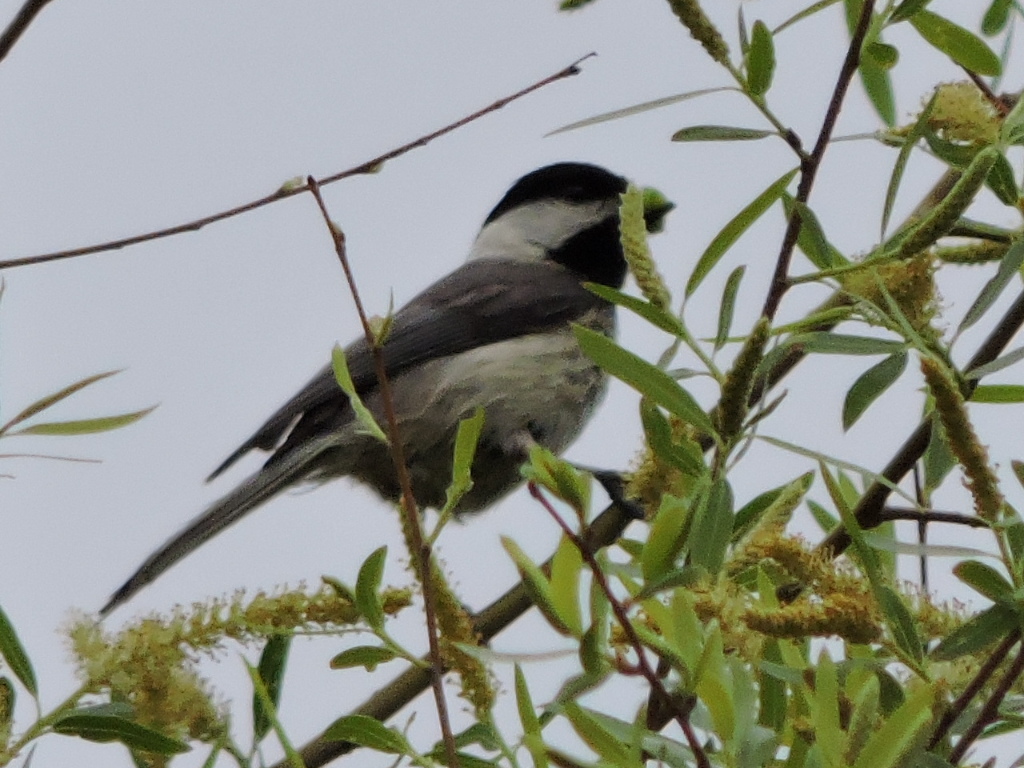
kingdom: Animalia
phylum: Chordata
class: Aves
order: Passeriformes
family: Paridae
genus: Poecile
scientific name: Poecile carolinensis
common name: Carolina chickadee
